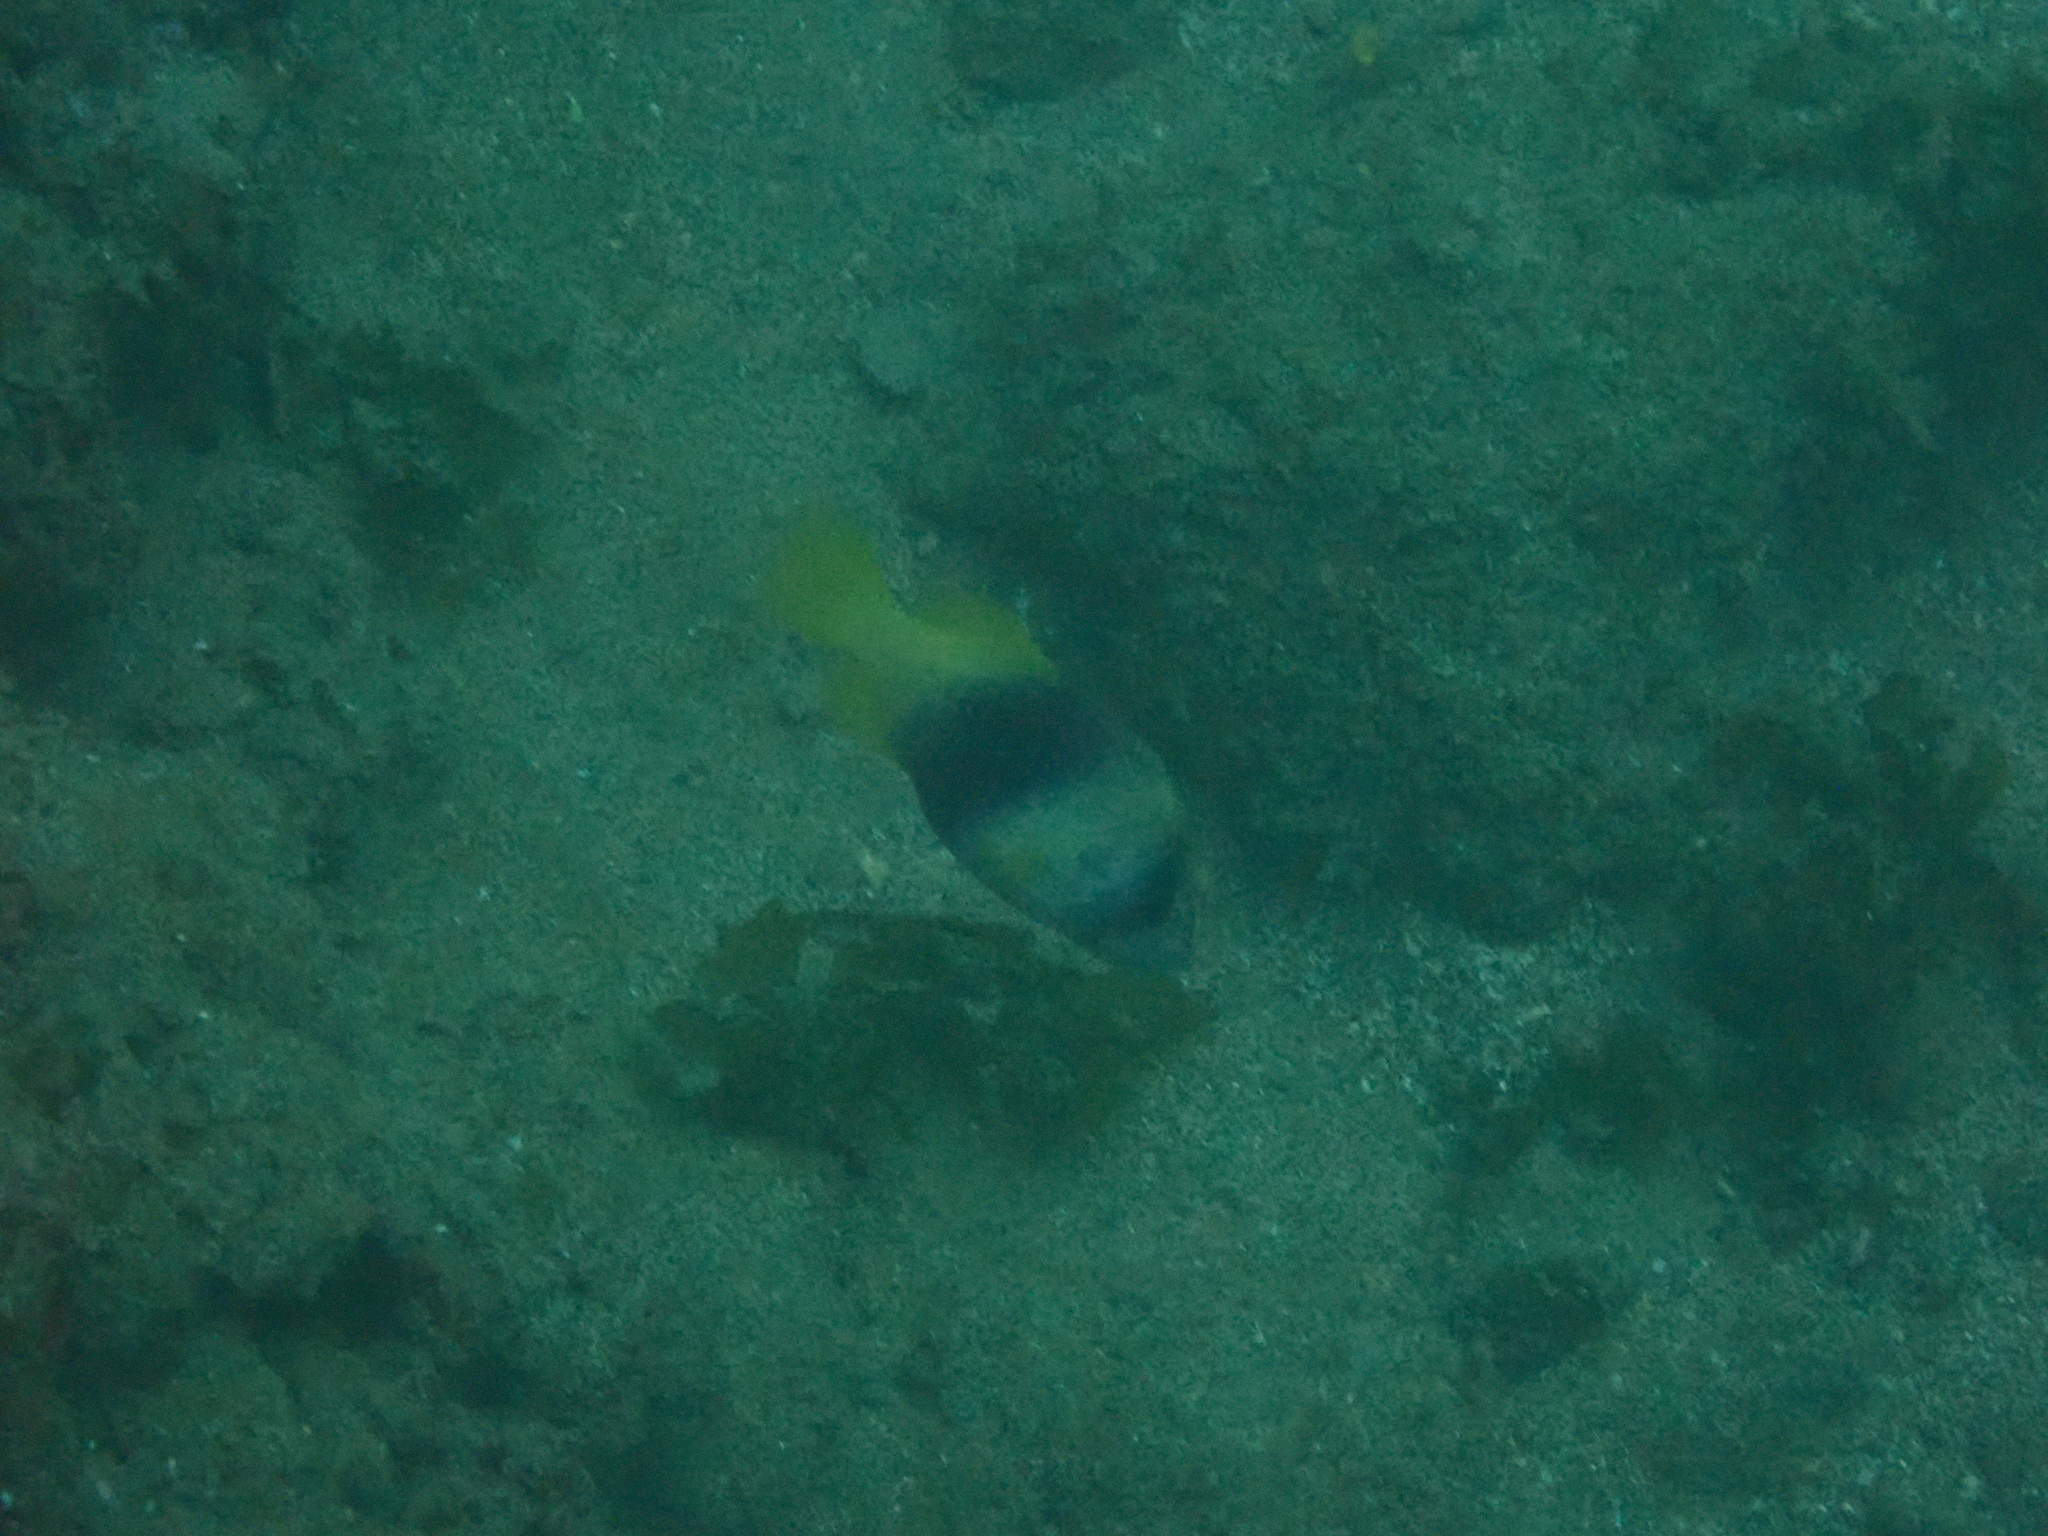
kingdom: Animalia
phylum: Chordata
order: Perciformes
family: Serranidae
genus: Diploprion
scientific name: Diploprion bifasciatum
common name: Barred soapfish
